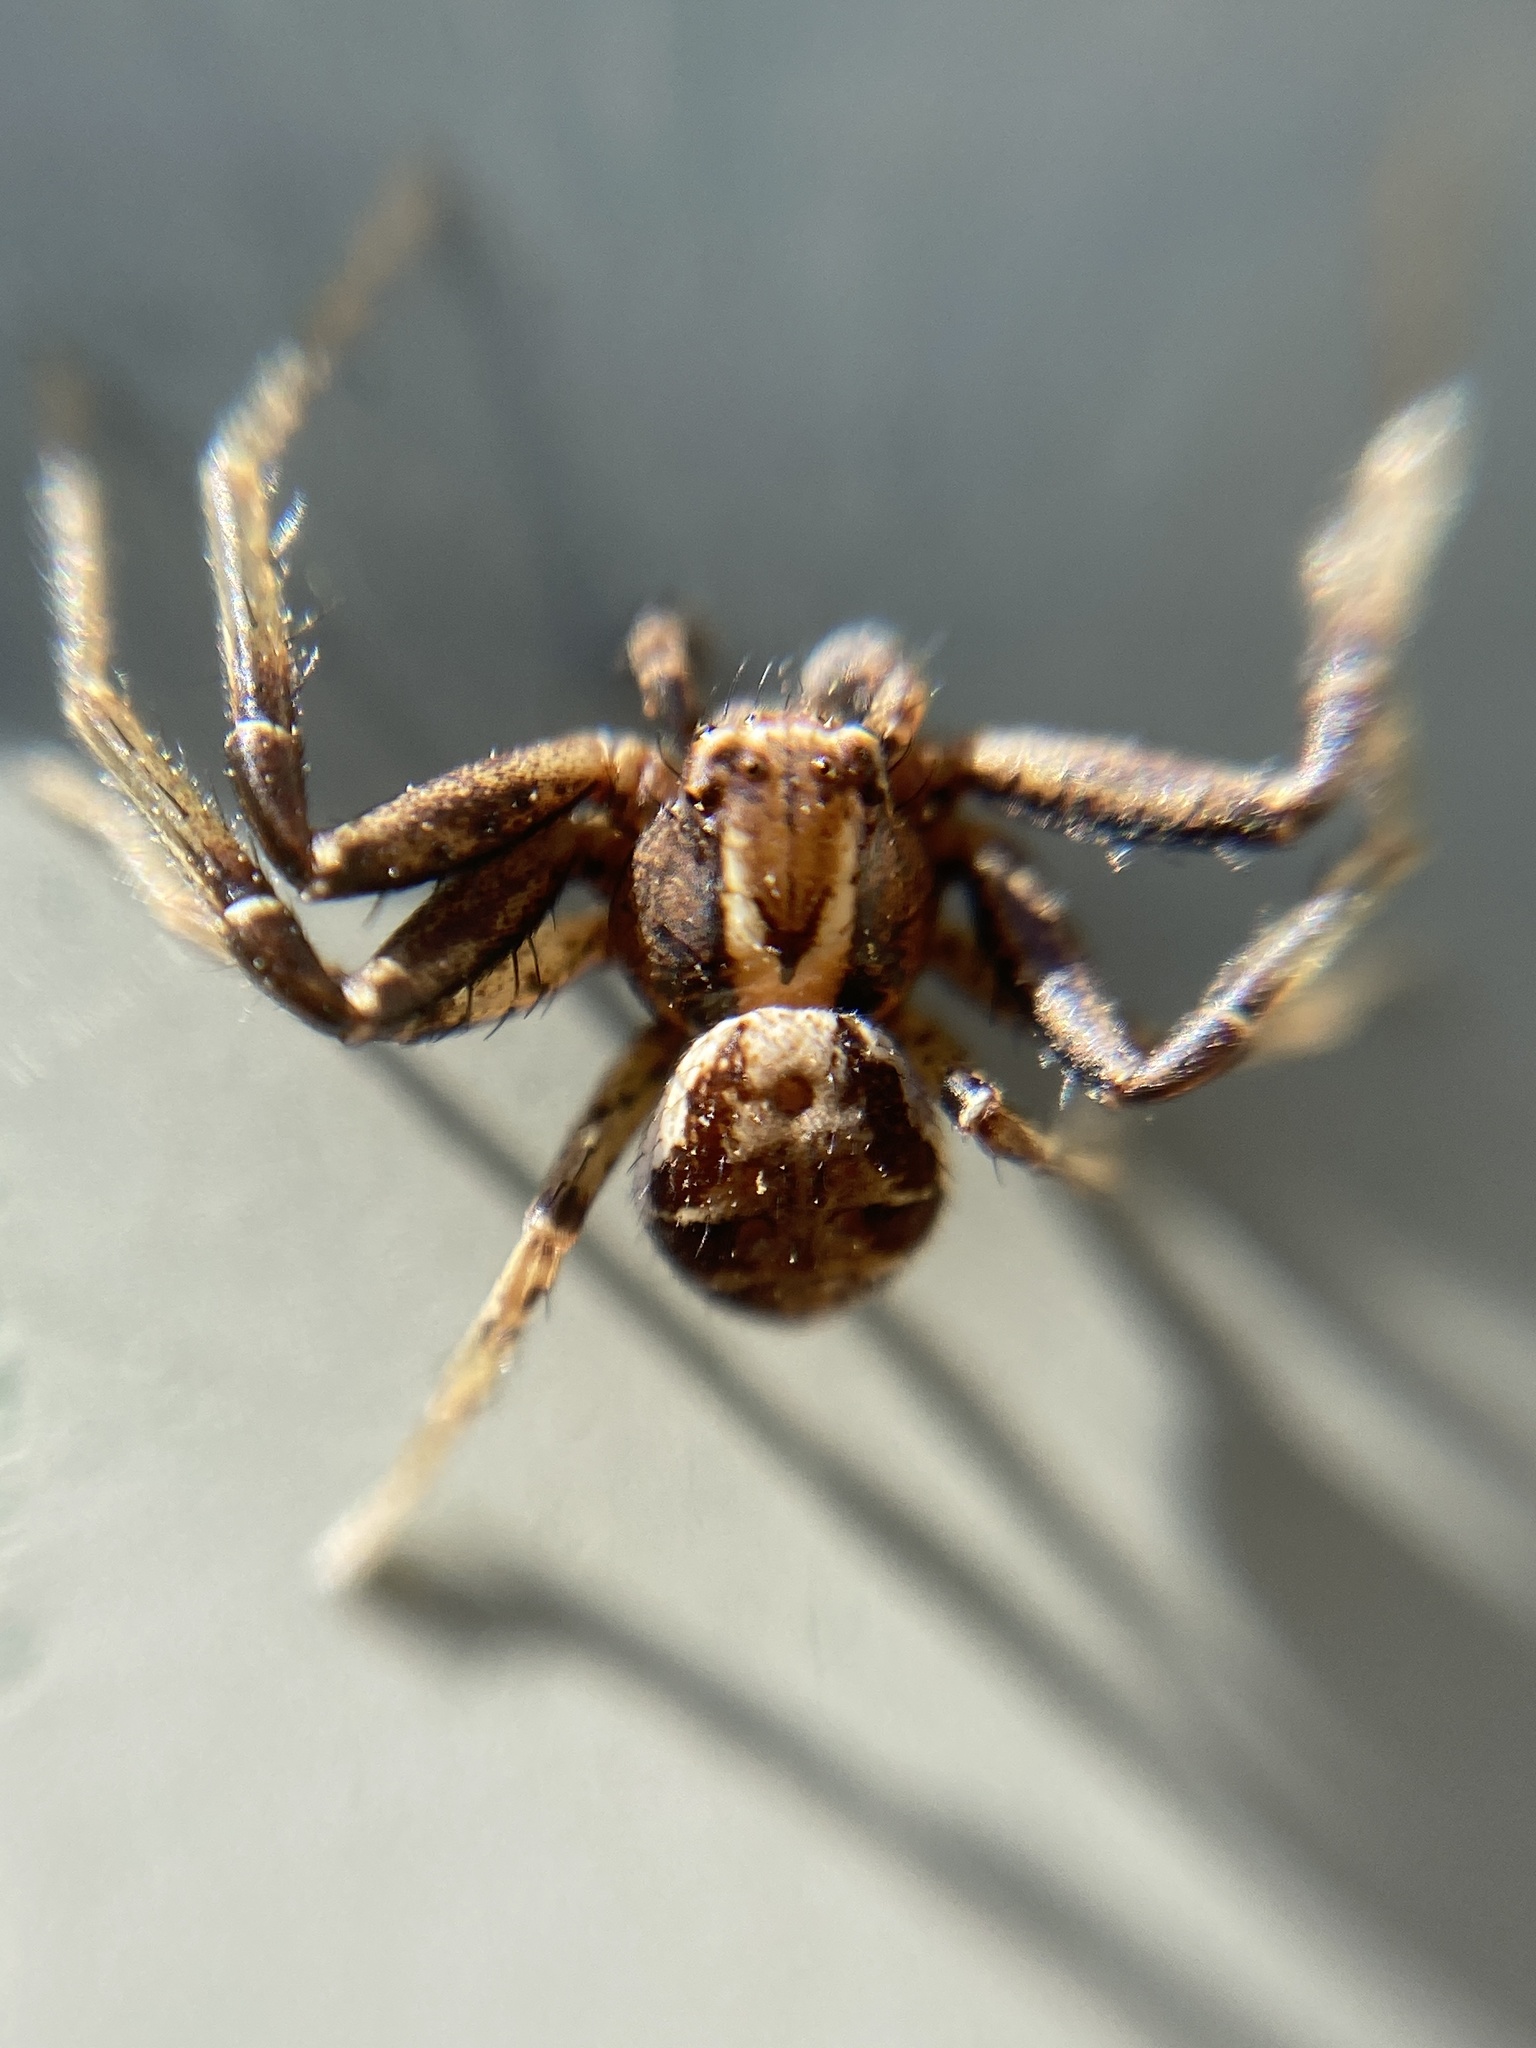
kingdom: Animalia
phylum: Arthropoda
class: Arachnida
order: Araneae
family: Thomisidae
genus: Xysticus
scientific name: Xysticus
